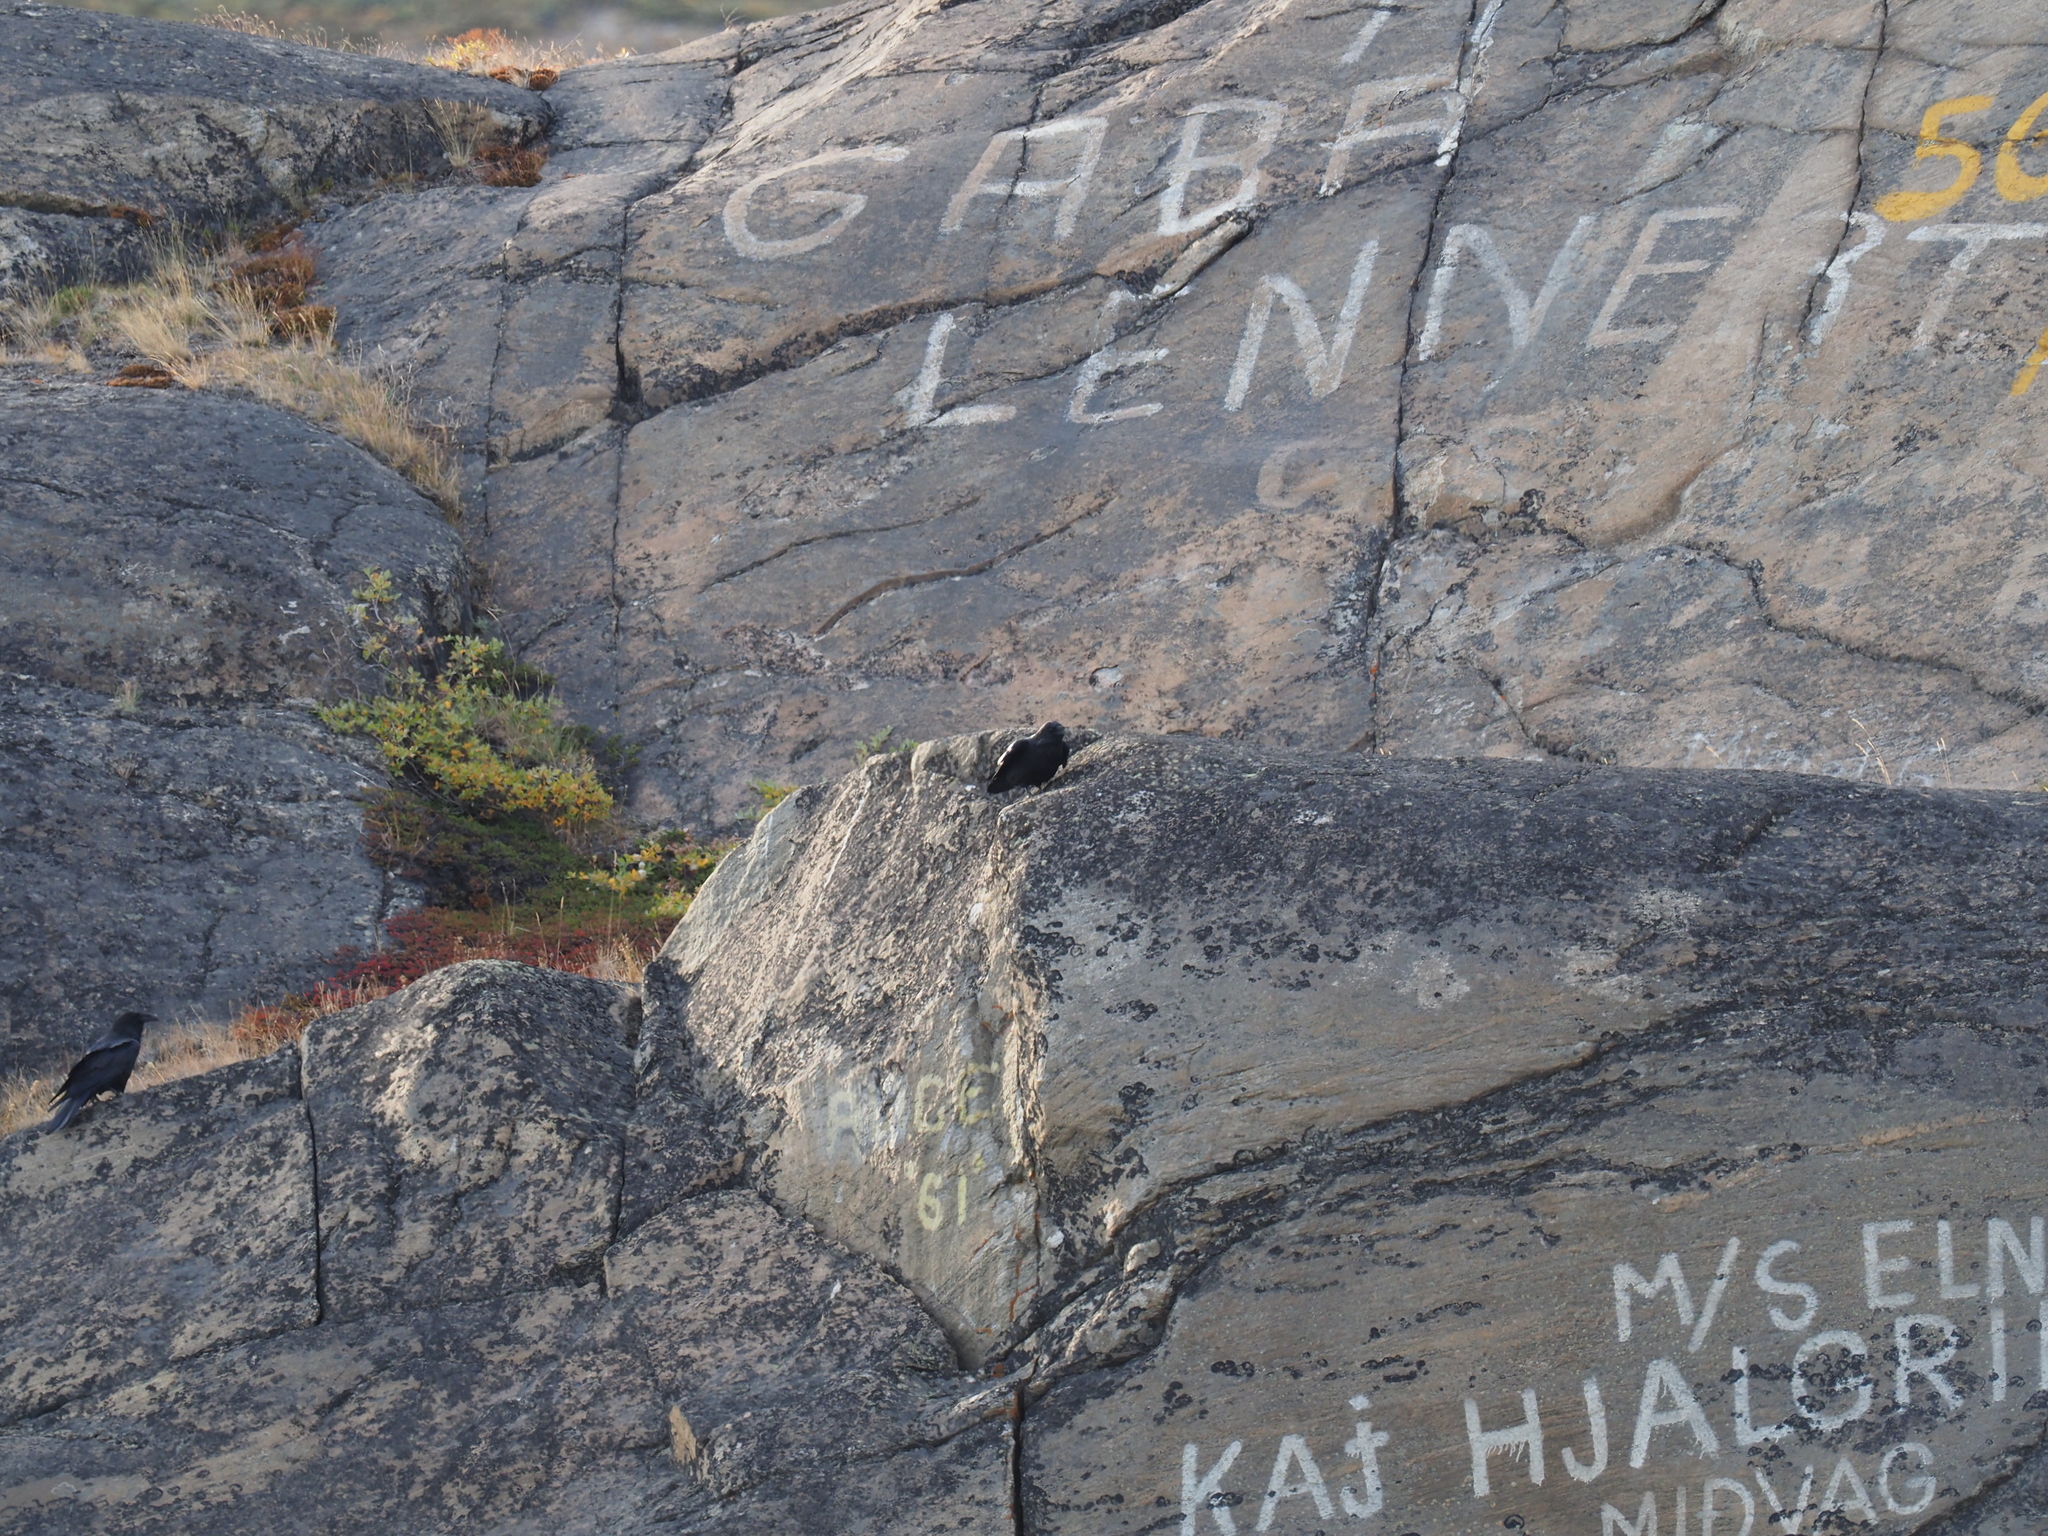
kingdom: Animalia
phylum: Chordata
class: Aves
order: Passeriformes
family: Corvidae
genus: Corvus
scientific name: Corvus corax
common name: Common raven
